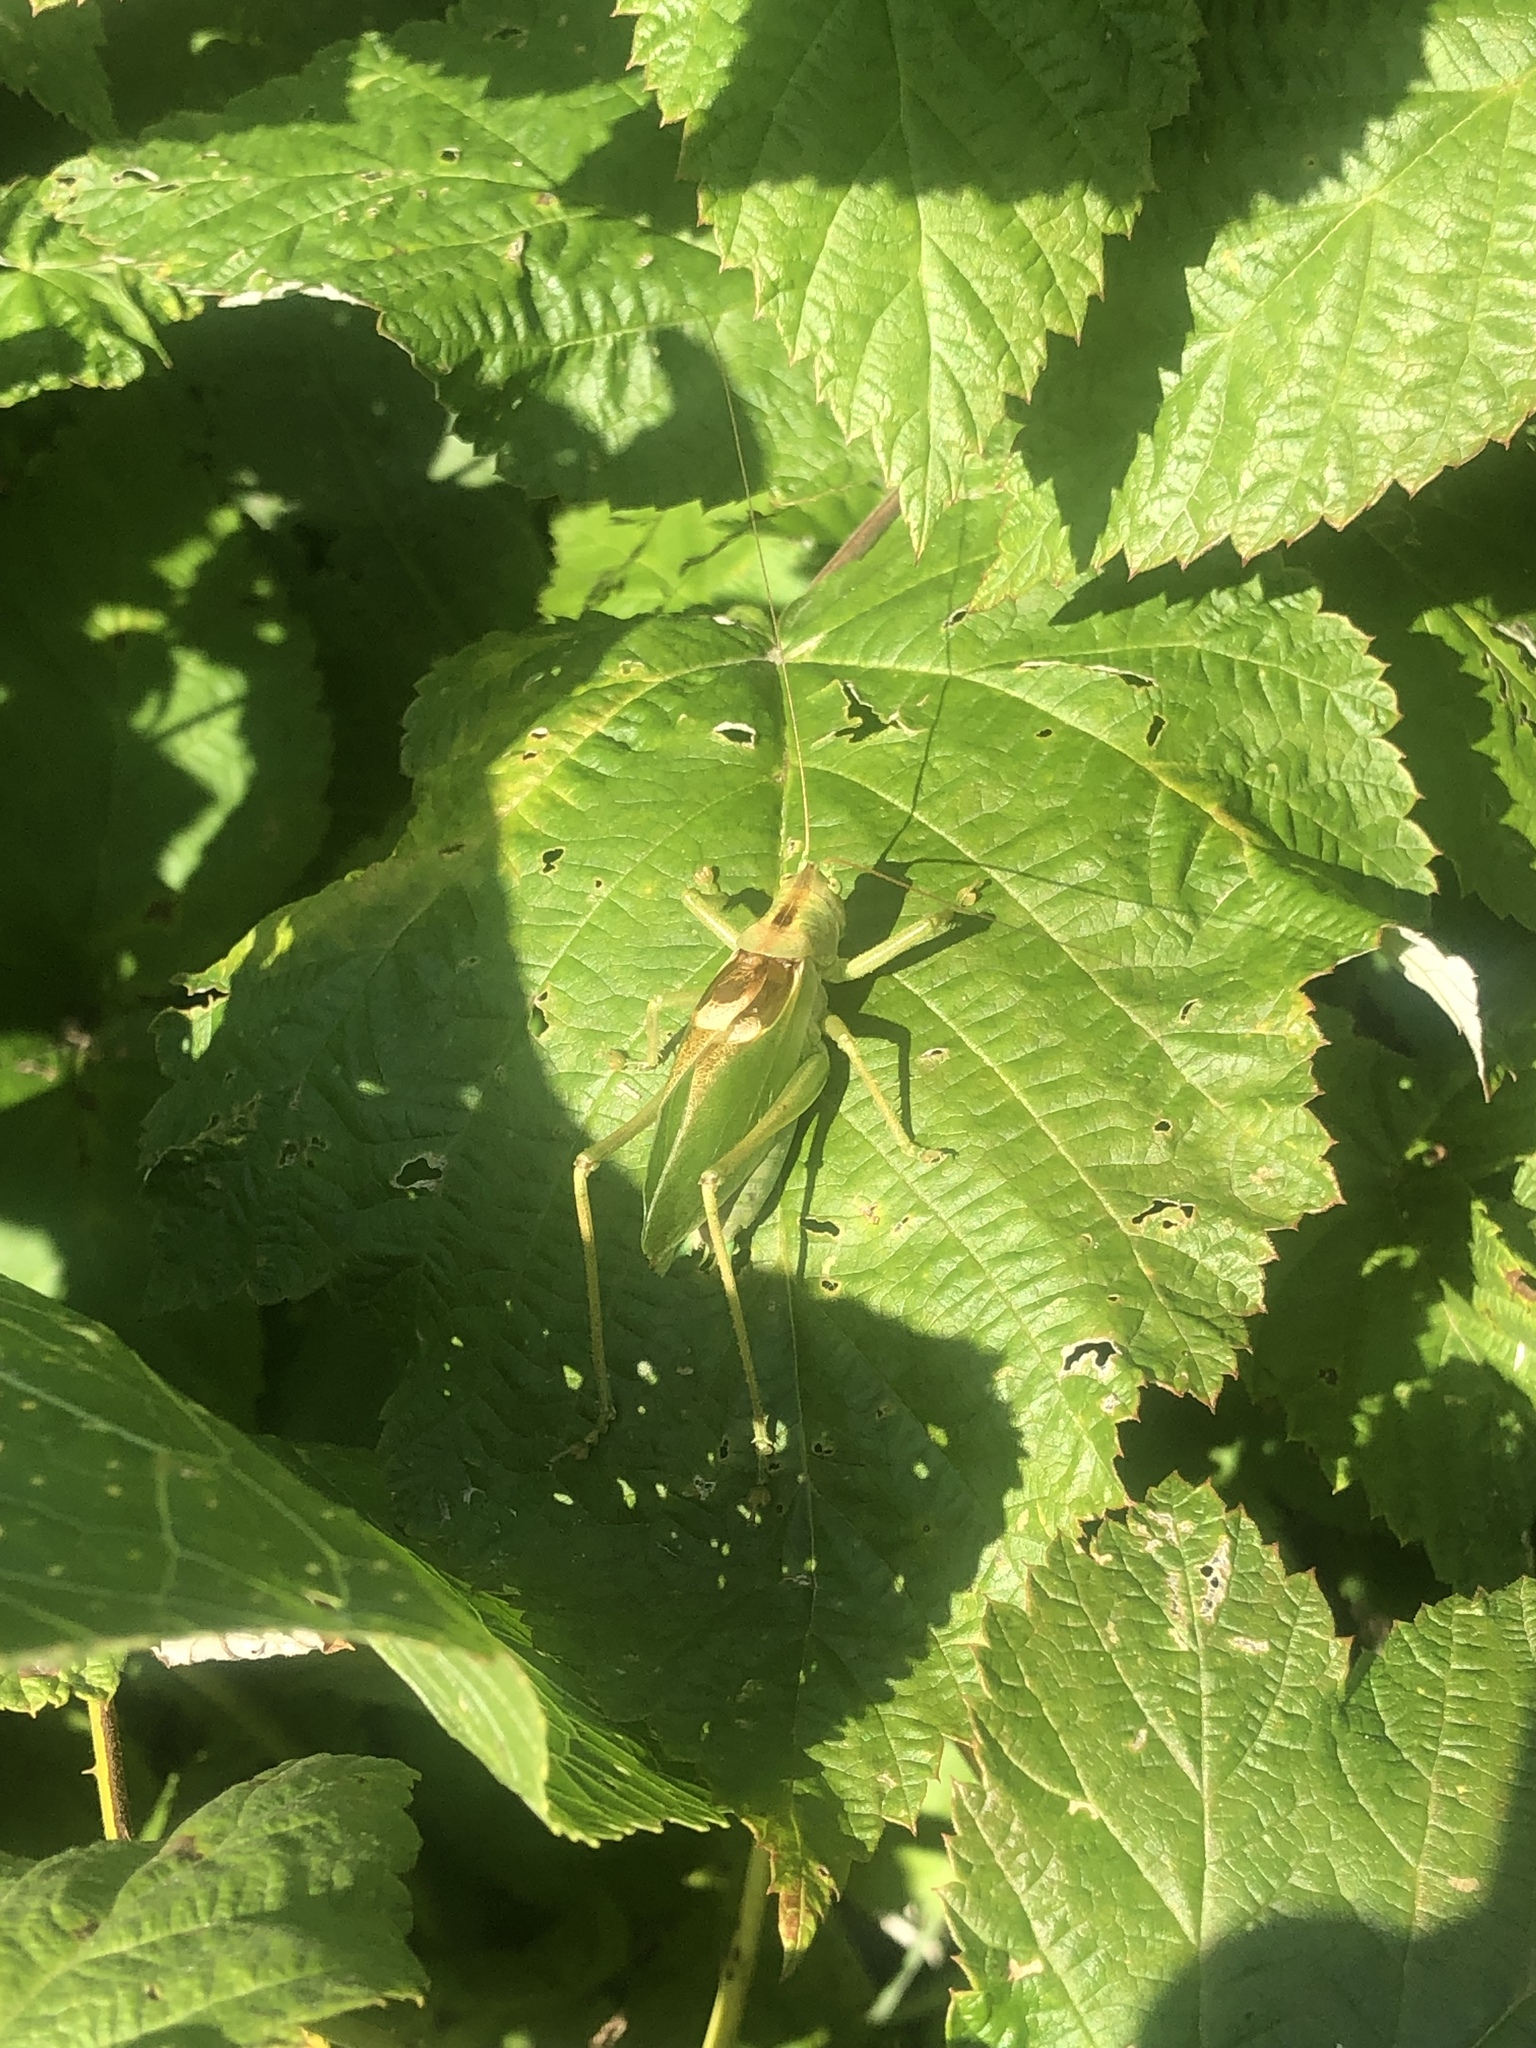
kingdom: Animalia
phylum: Arthropoda
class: Insecta
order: Orthoptera
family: Tettigoniidae
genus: Tettigonia
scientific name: Tettigonia cantans
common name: Upland green bush-cricket
